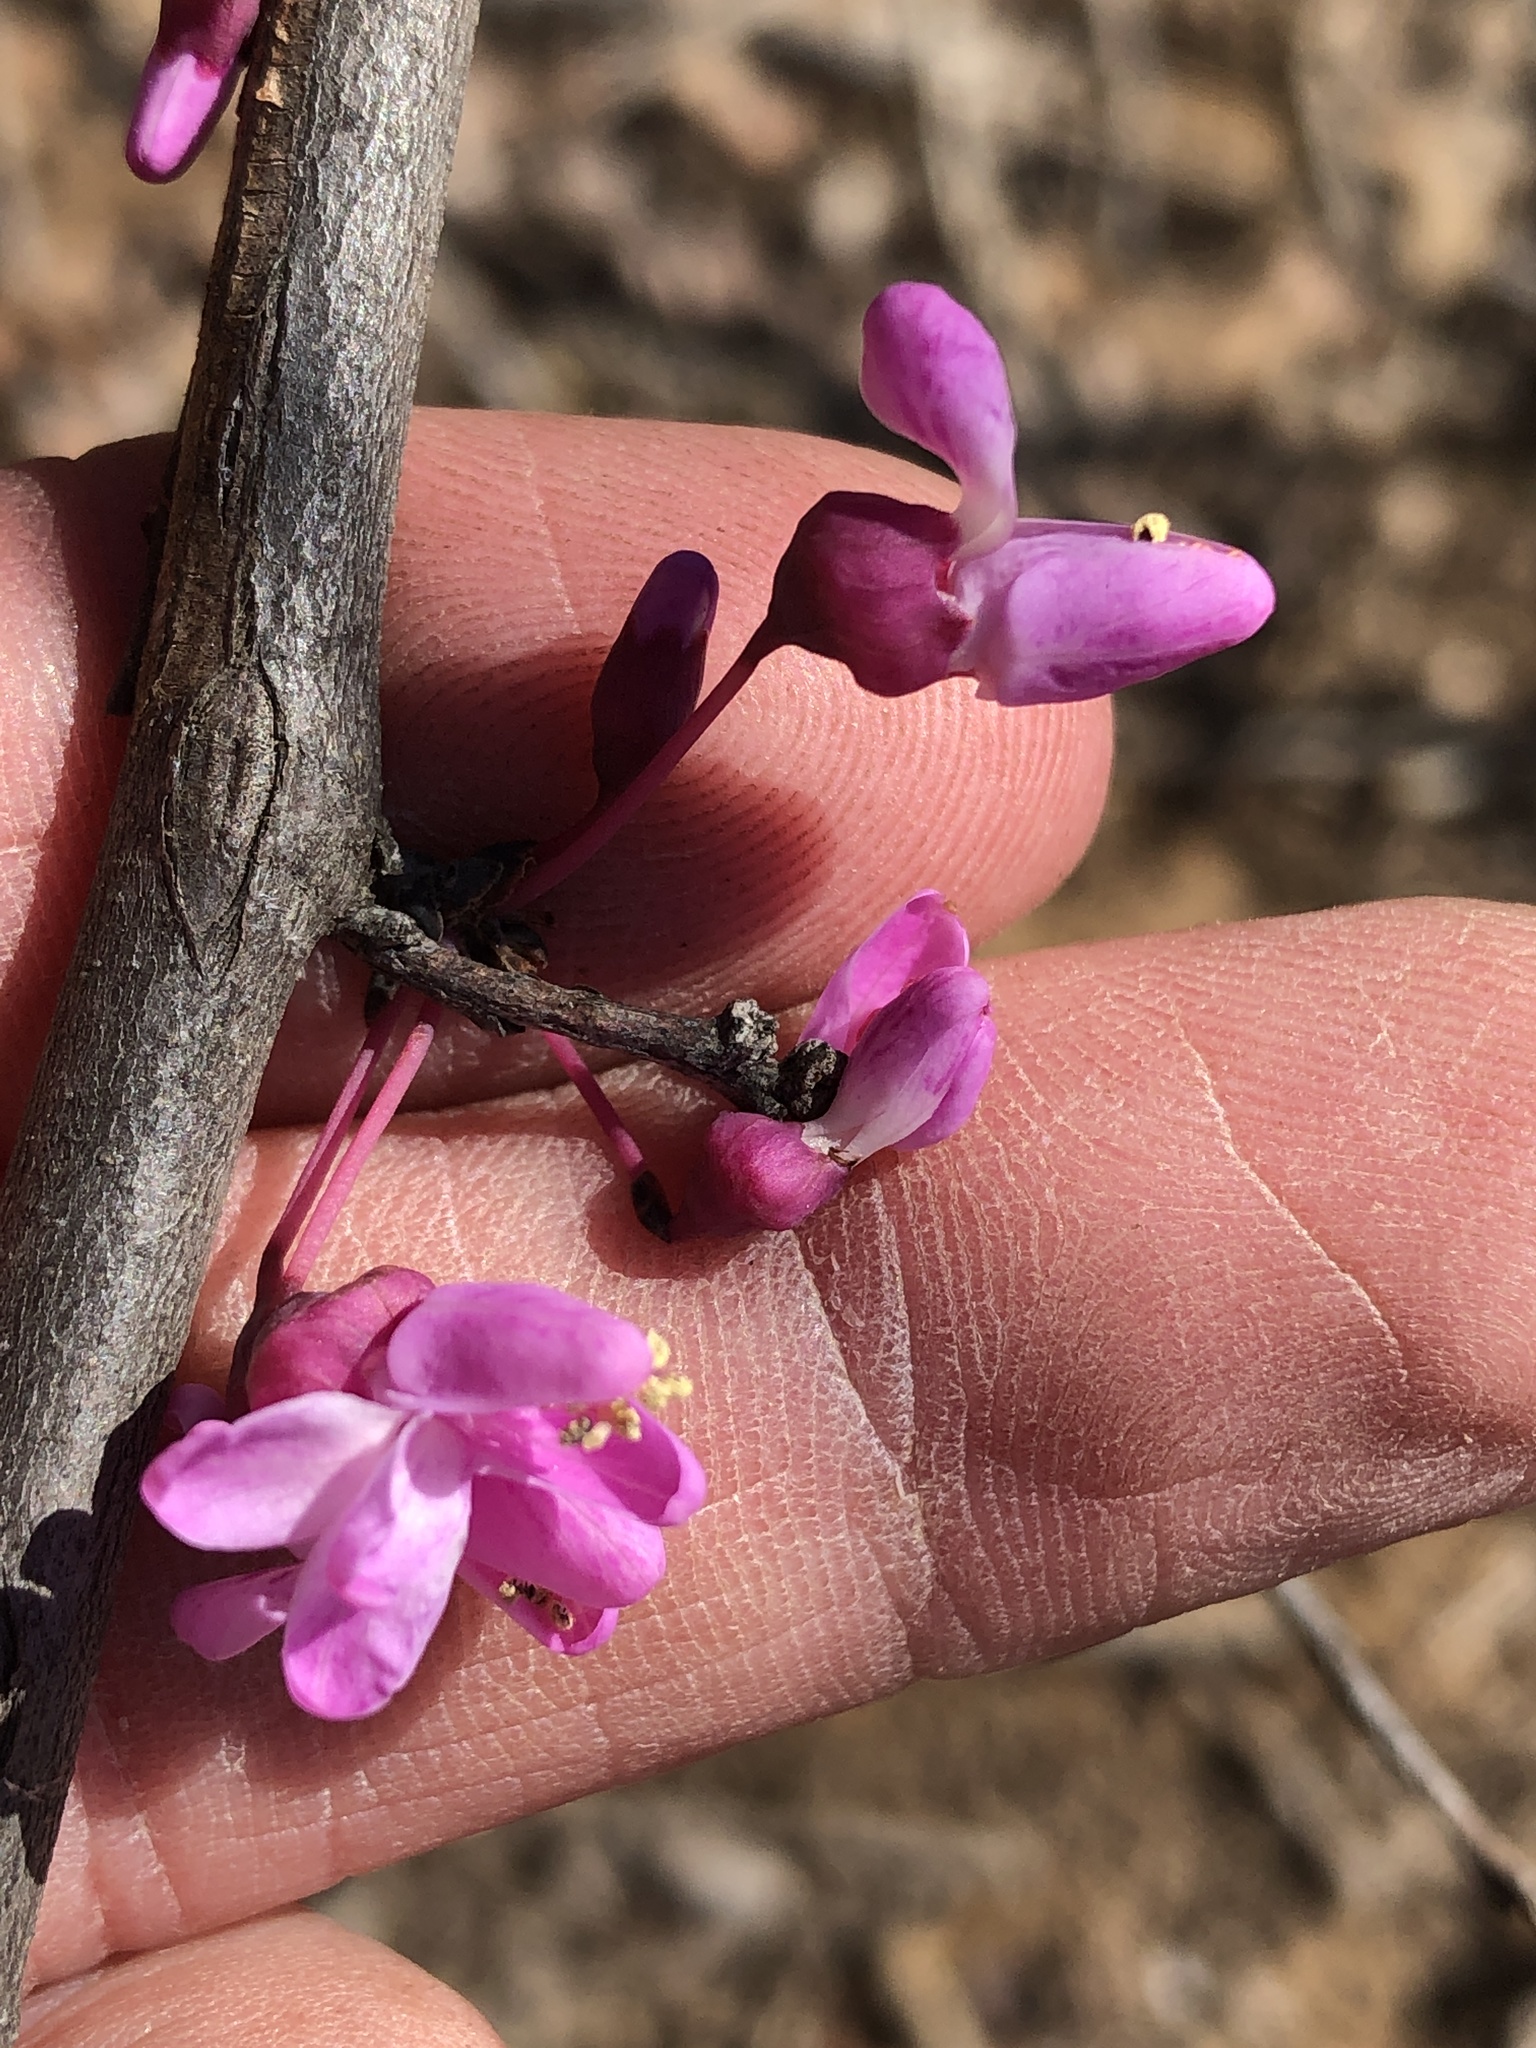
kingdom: Plantae
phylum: Tracheophyta
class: Magnoliopsida
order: Fabales
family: Fabaceae
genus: Cercis
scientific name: Cercis canadensis
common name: Eastern redbud
